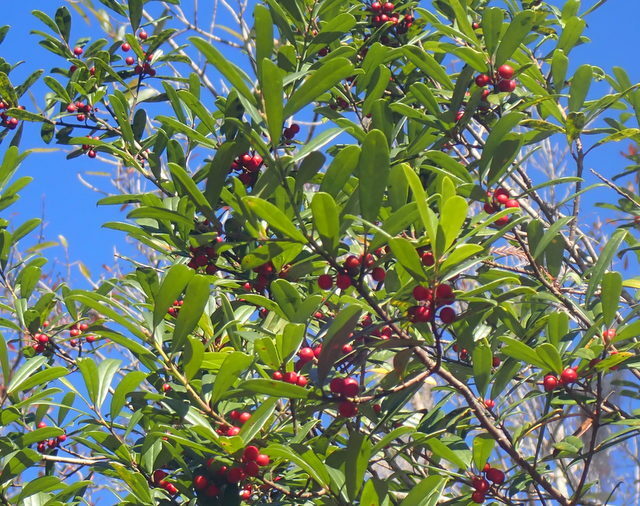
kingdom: Plantae
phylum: Tracheophyta
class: Magnoliopsida
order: Aquifoliales
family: Aquifoliaceae
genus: Ilex
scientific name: Ilex cassine
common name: Dahoon
